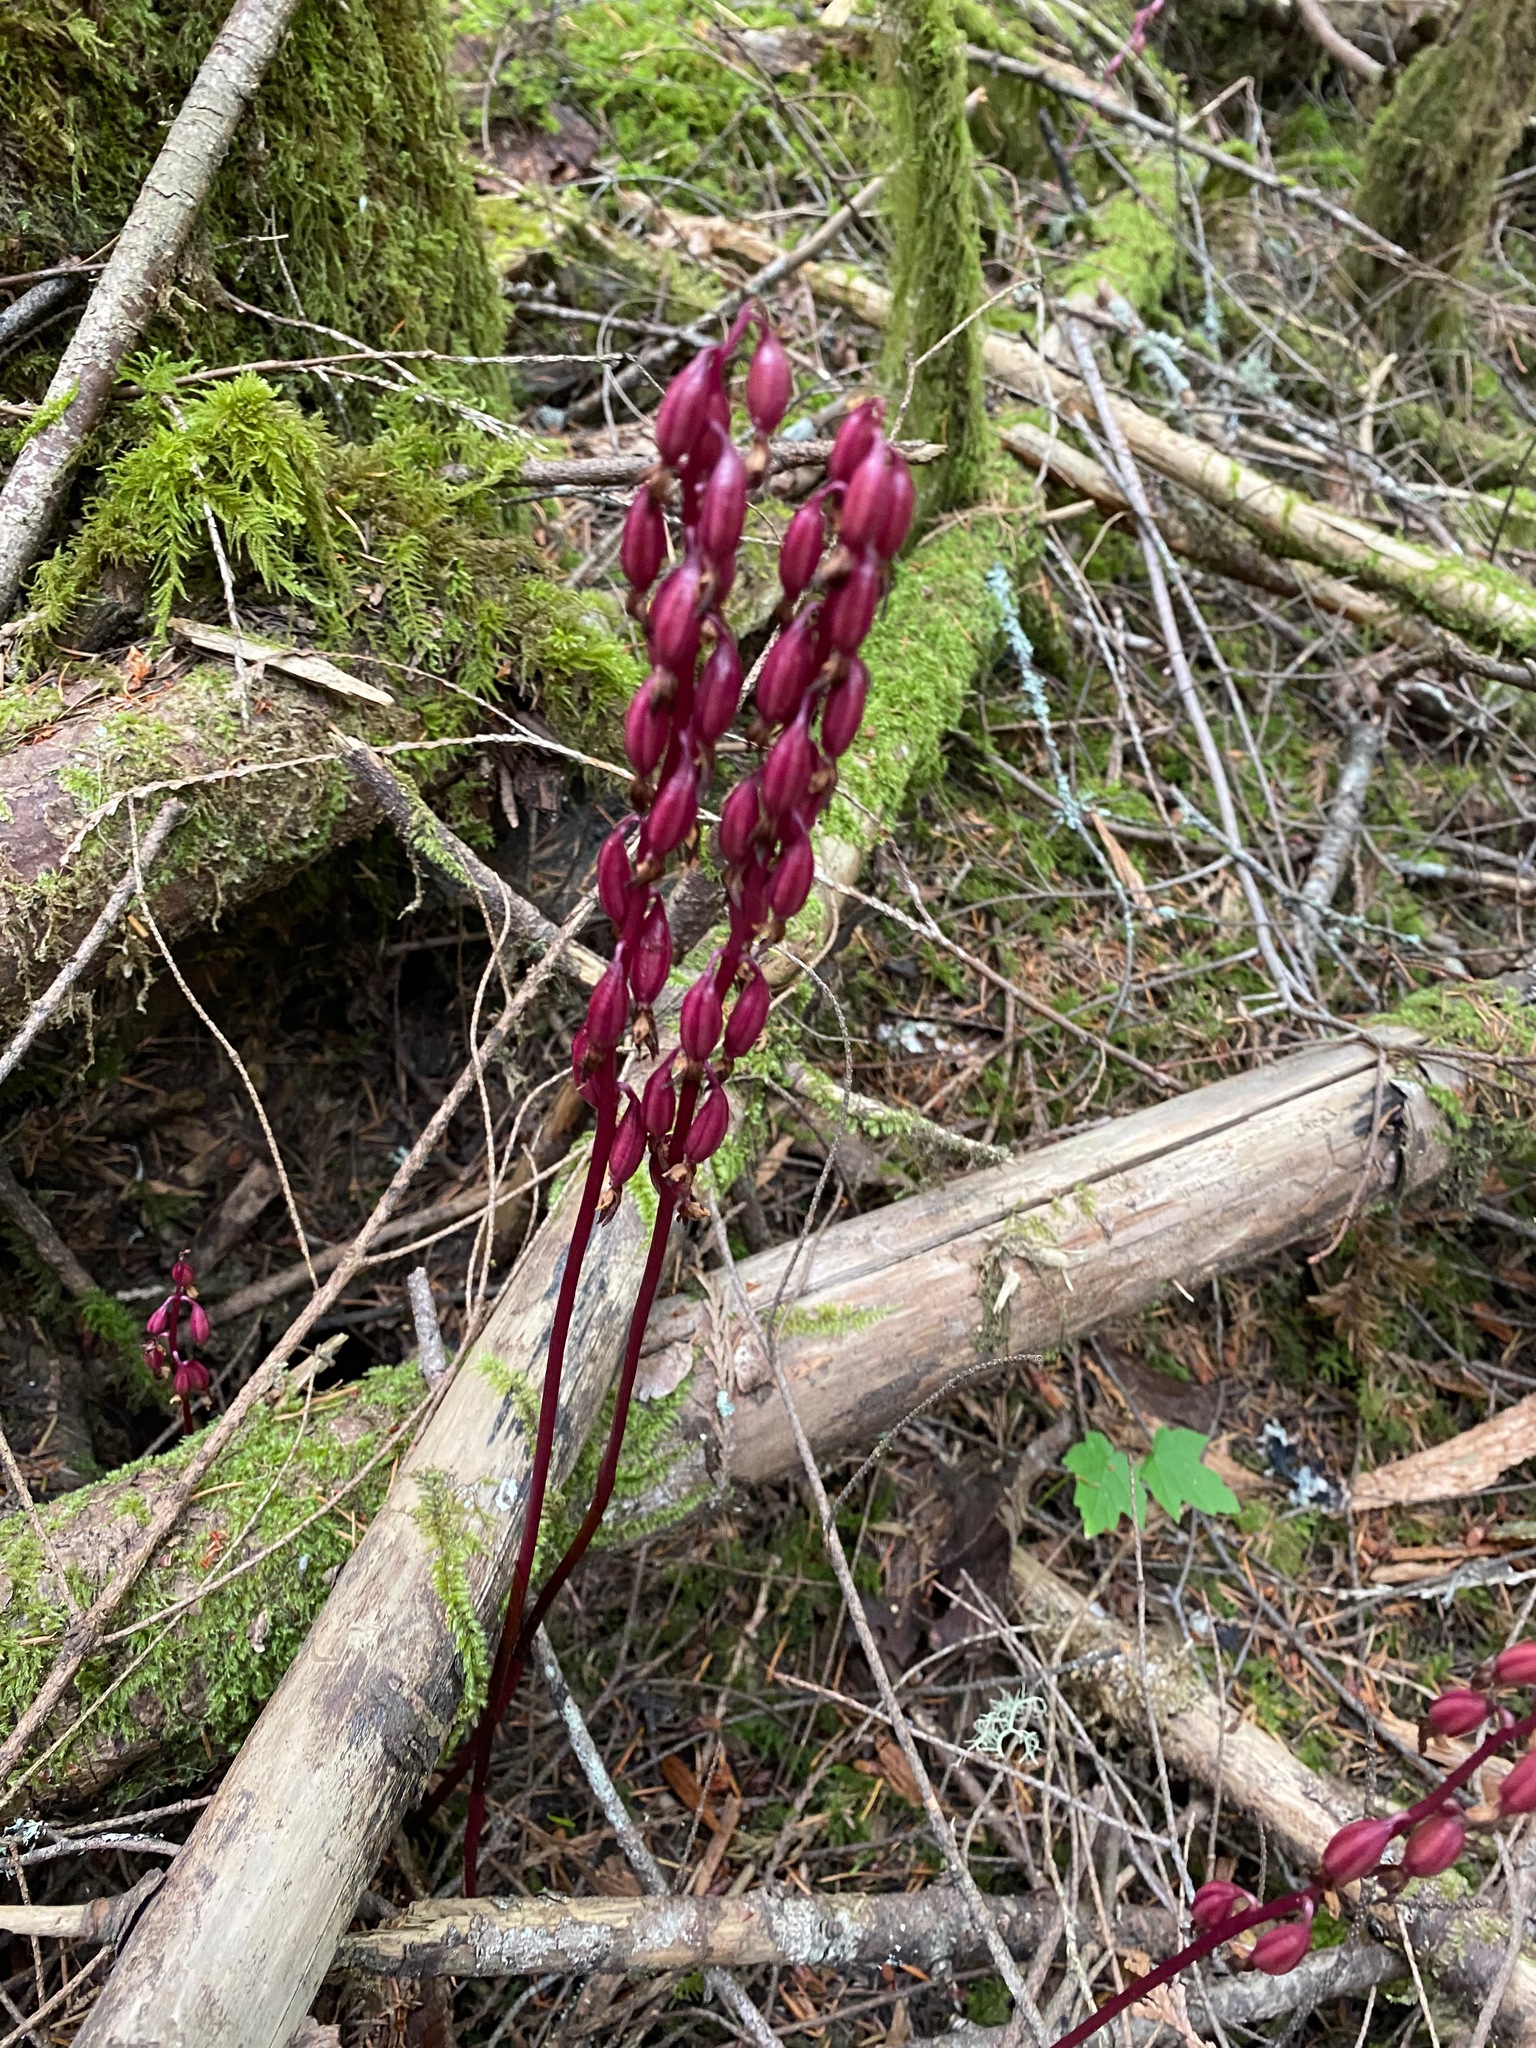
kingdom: Plantae
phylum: Tracheophyta
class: Liliopsida
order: Asparagales
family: Orchidaceae
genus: Corallorhiza
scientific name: Corallorhiza mertensiana
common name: Pacific coralroot
